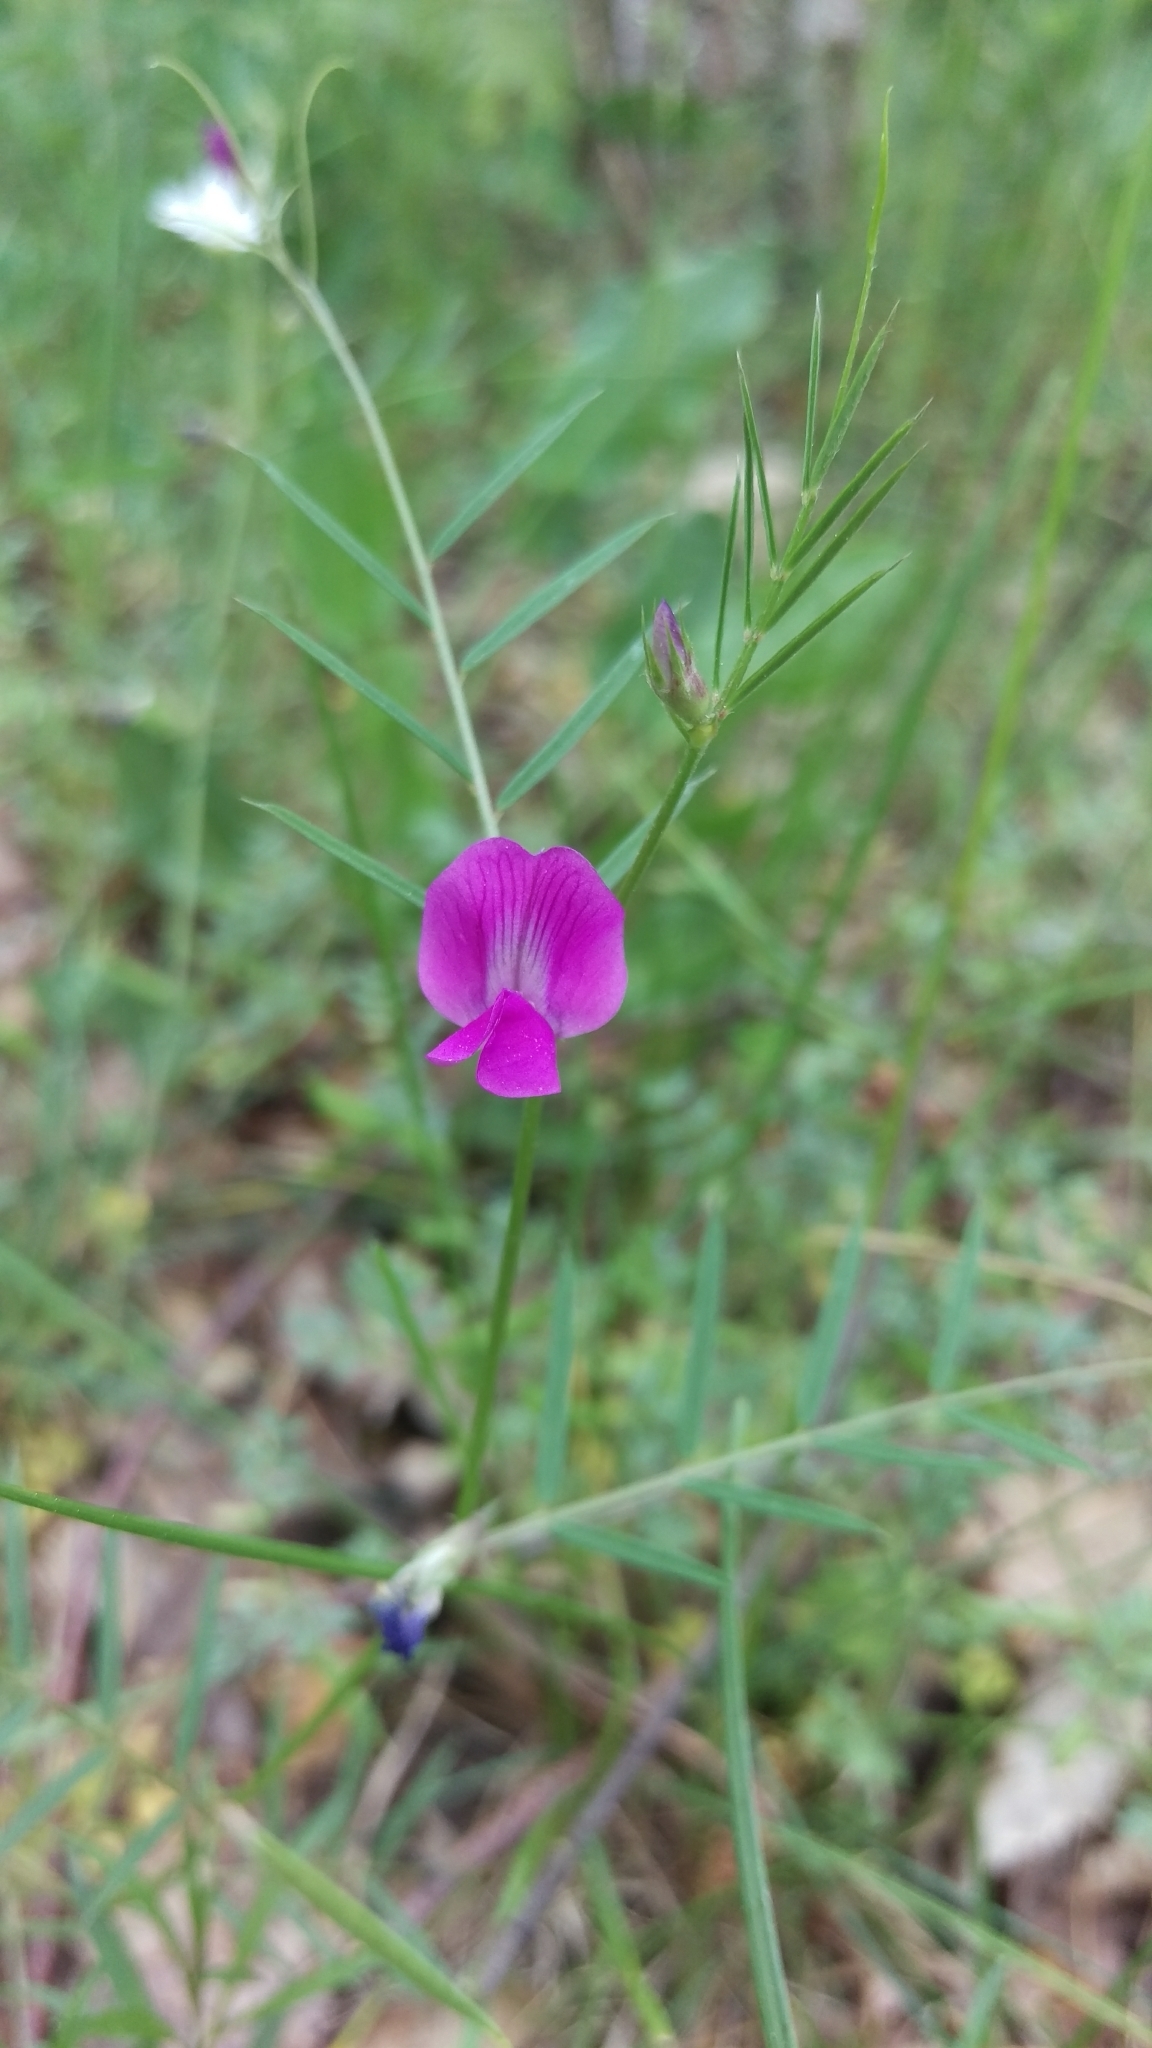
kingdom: Plantae
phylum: Tracheophyta
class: Magnoliopsida
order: Fabales
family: Fabaceae
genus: Vicia
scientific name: Vicia sativa
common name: Garden vetch
